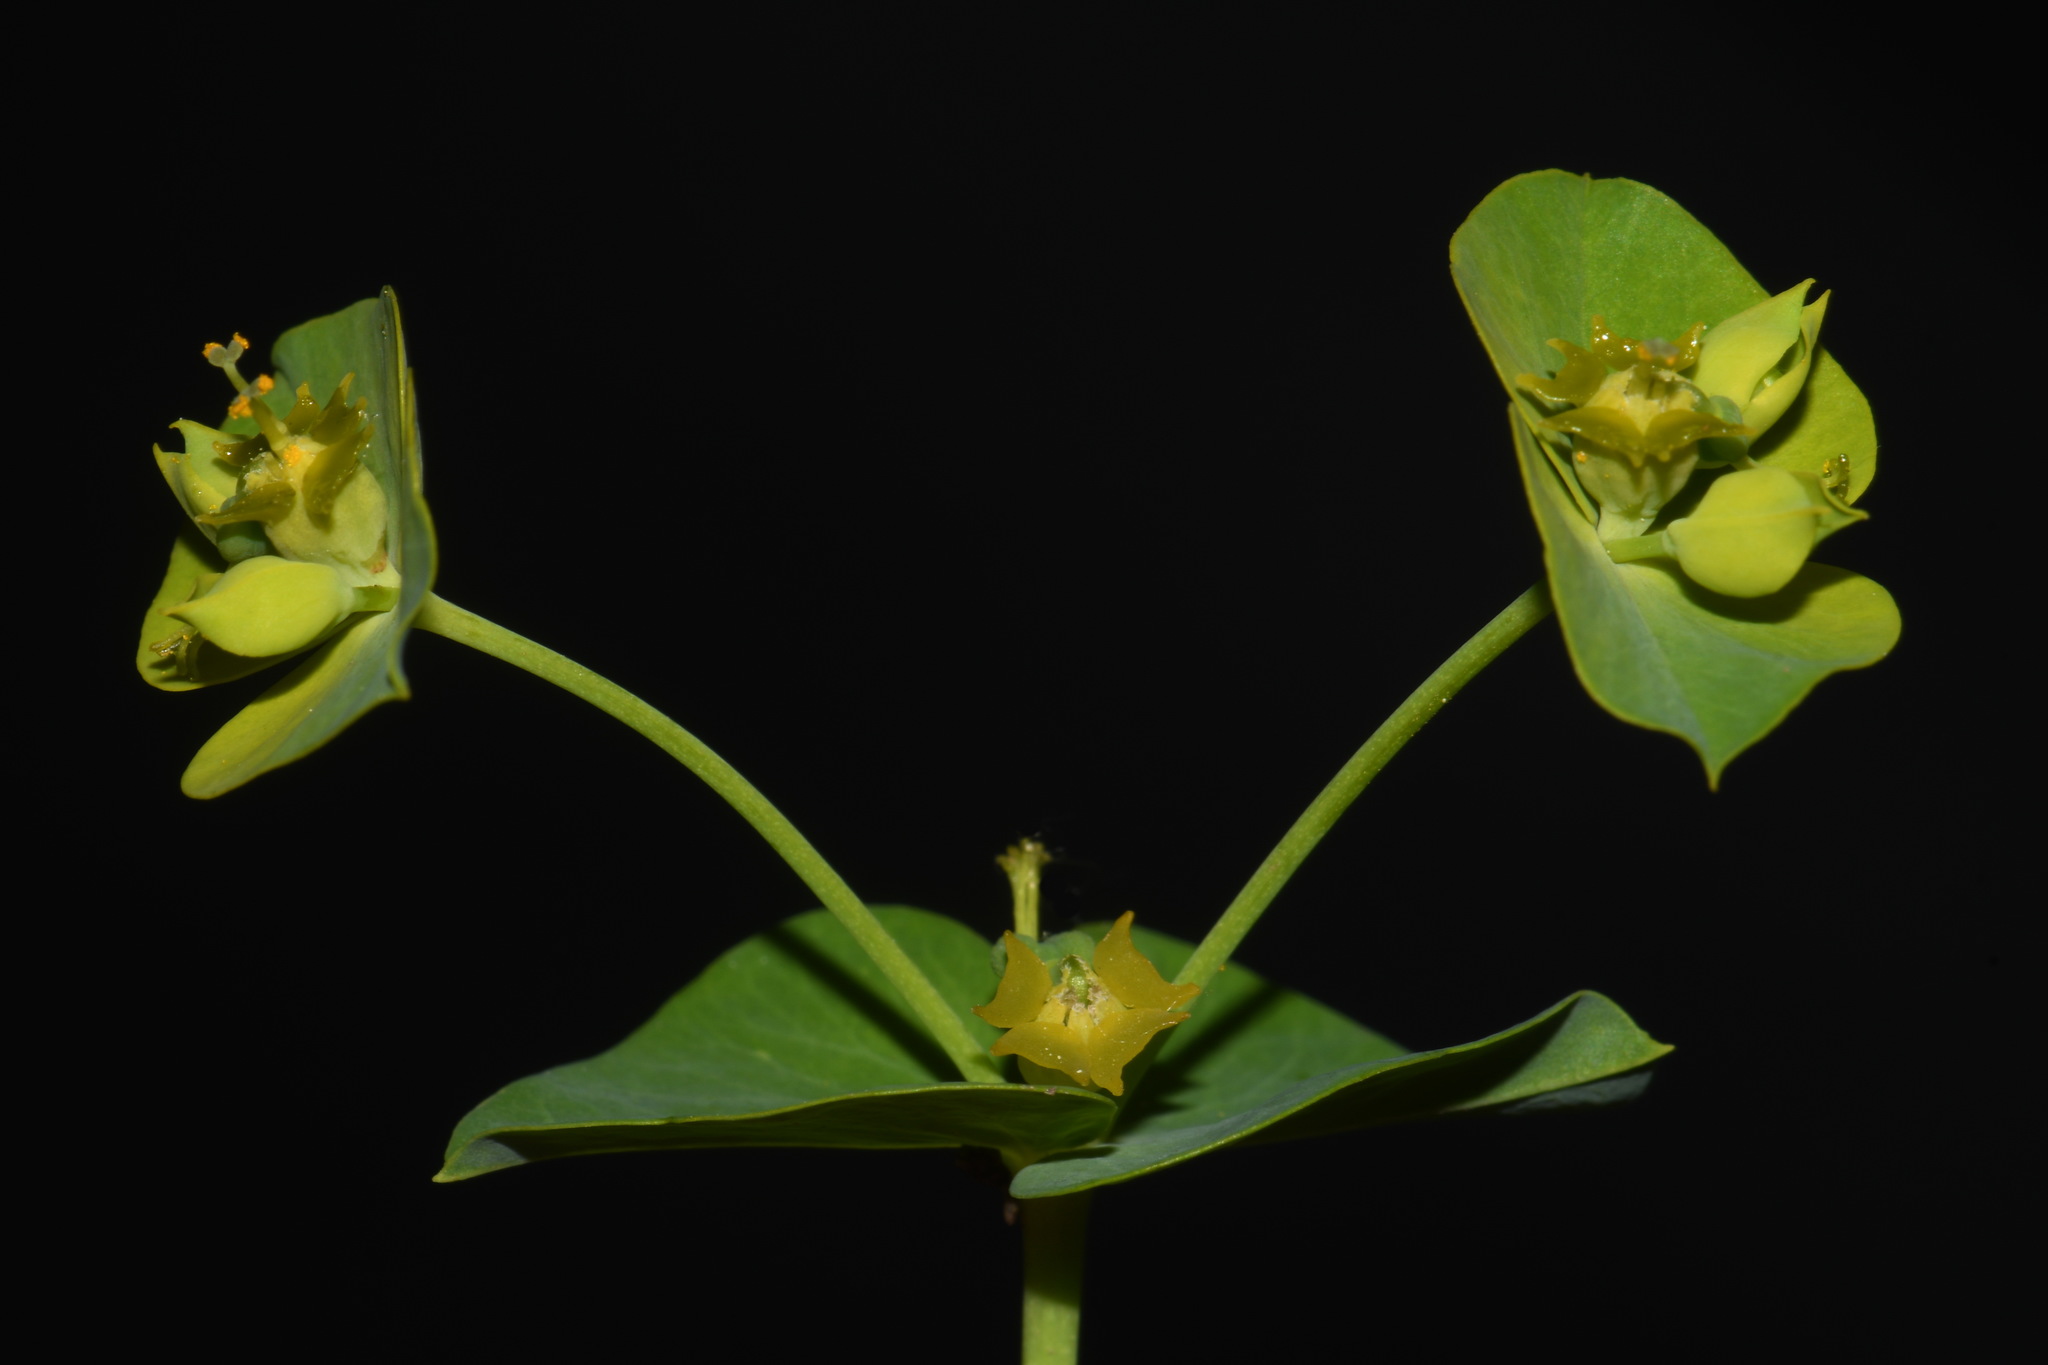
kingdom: Plantae
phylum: Tracheophyta
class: Magnoliopsida
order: Malpighiales
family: Euphorbiaceae
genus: Euphorbia
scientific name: Euphorbia virgata
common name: Leafy spurge
